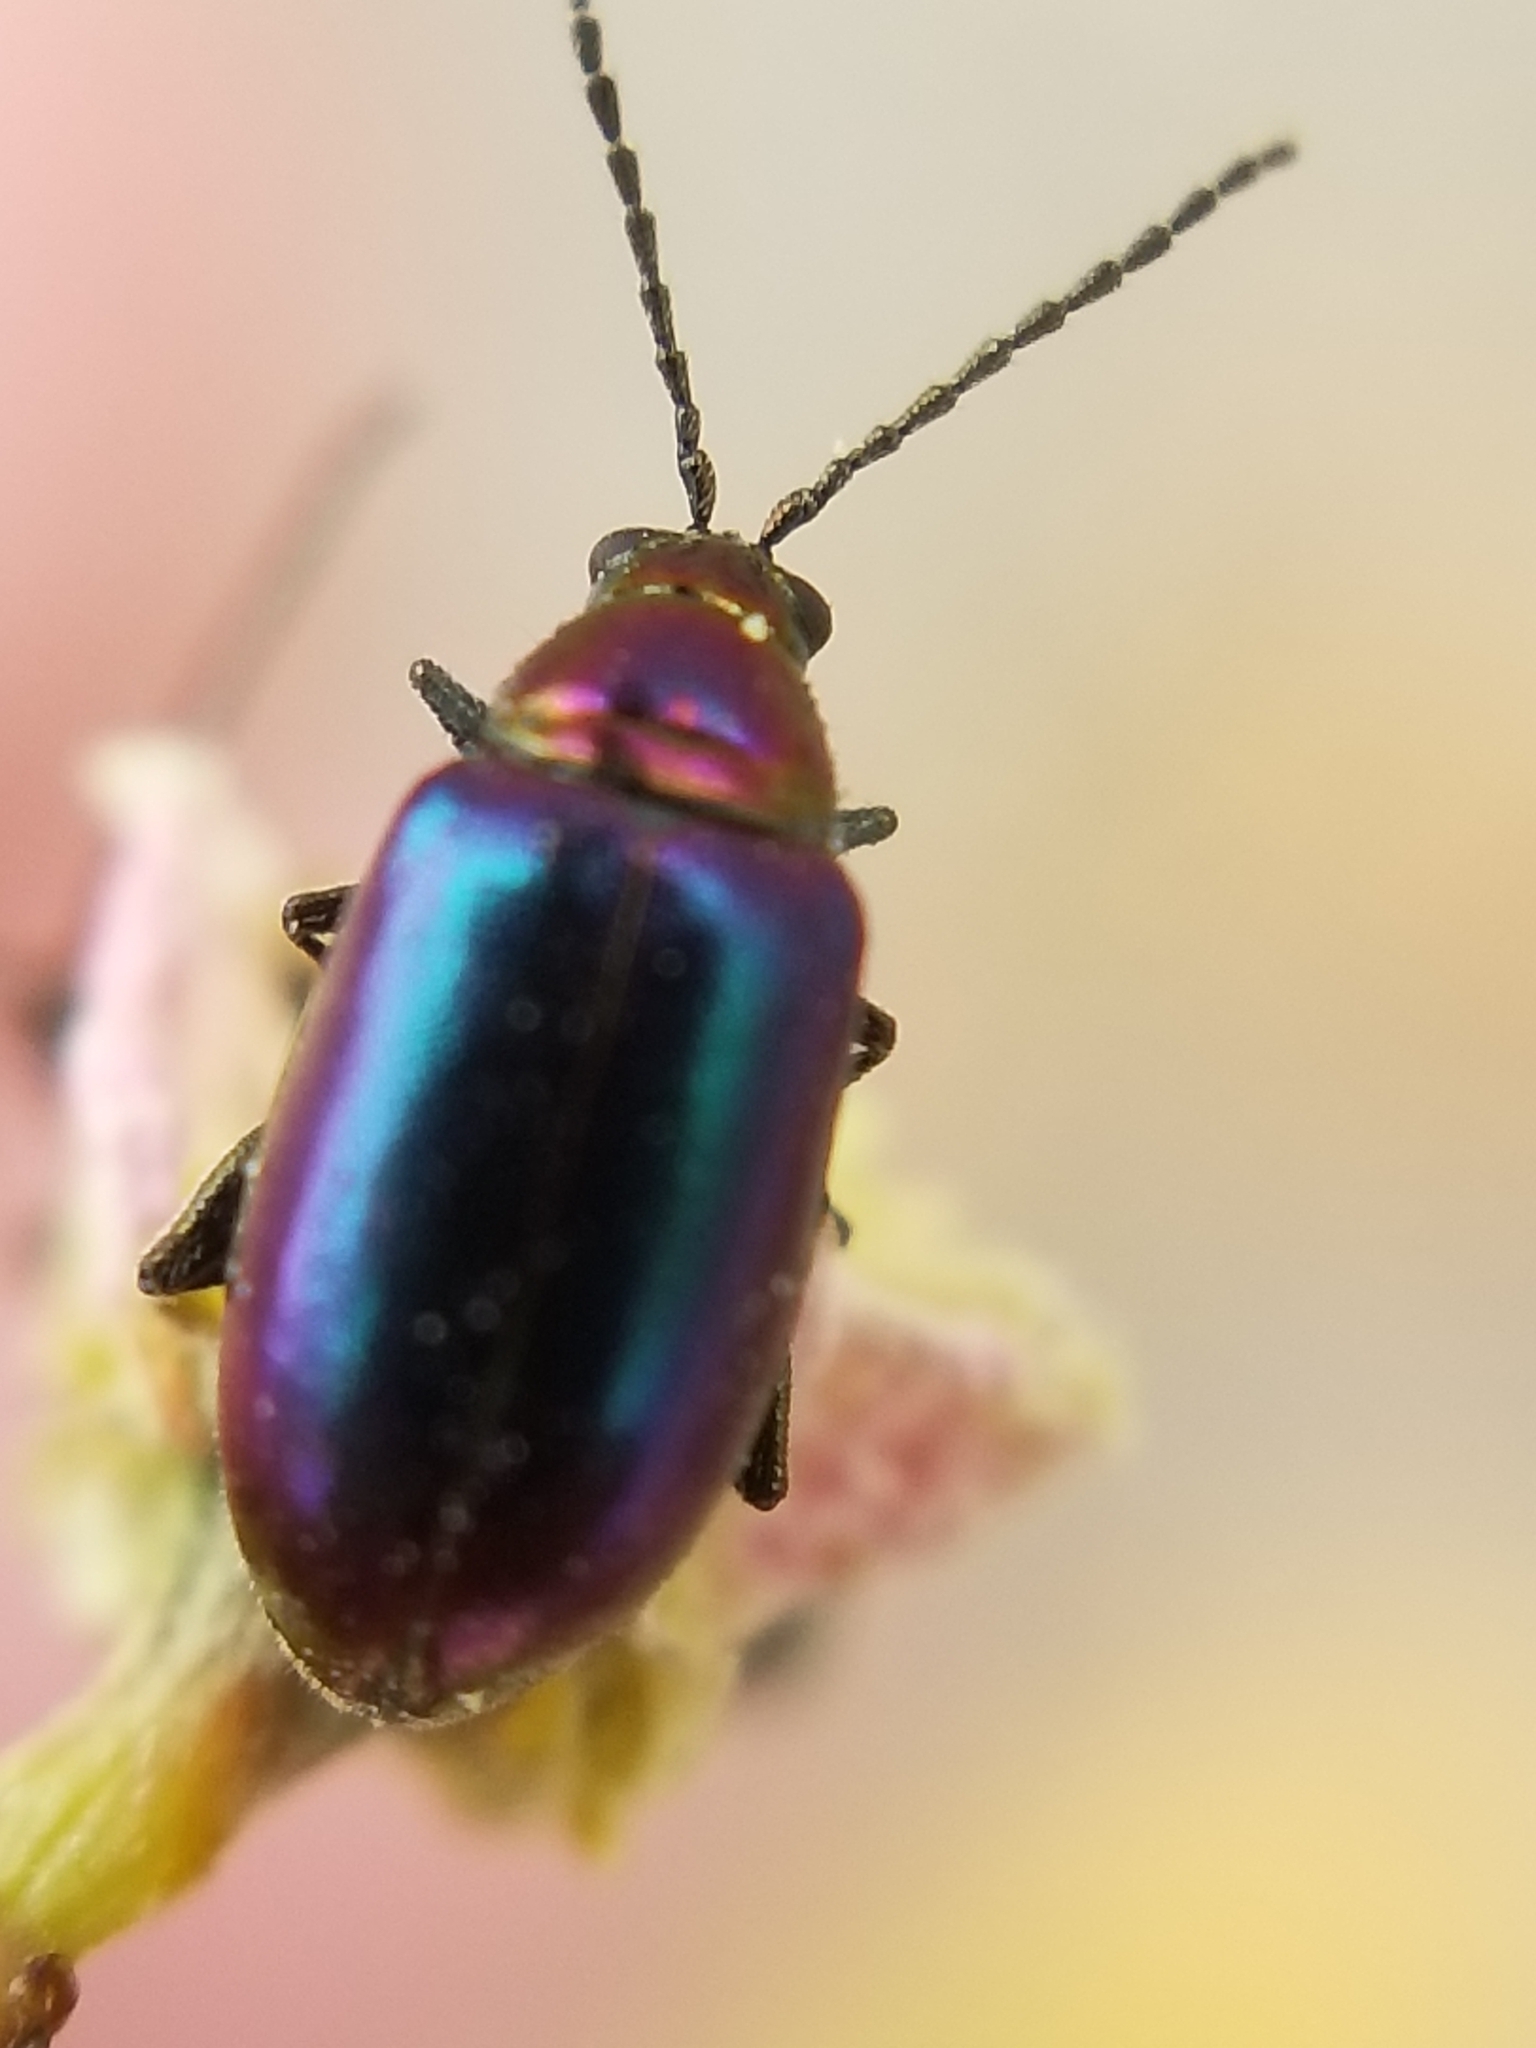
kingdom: Animalia
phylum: Arthropoda
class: Insecta
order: Coleoptera
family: Chrysomelidae
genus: Altica
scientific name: Altica torquata
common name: Leaf beetle
